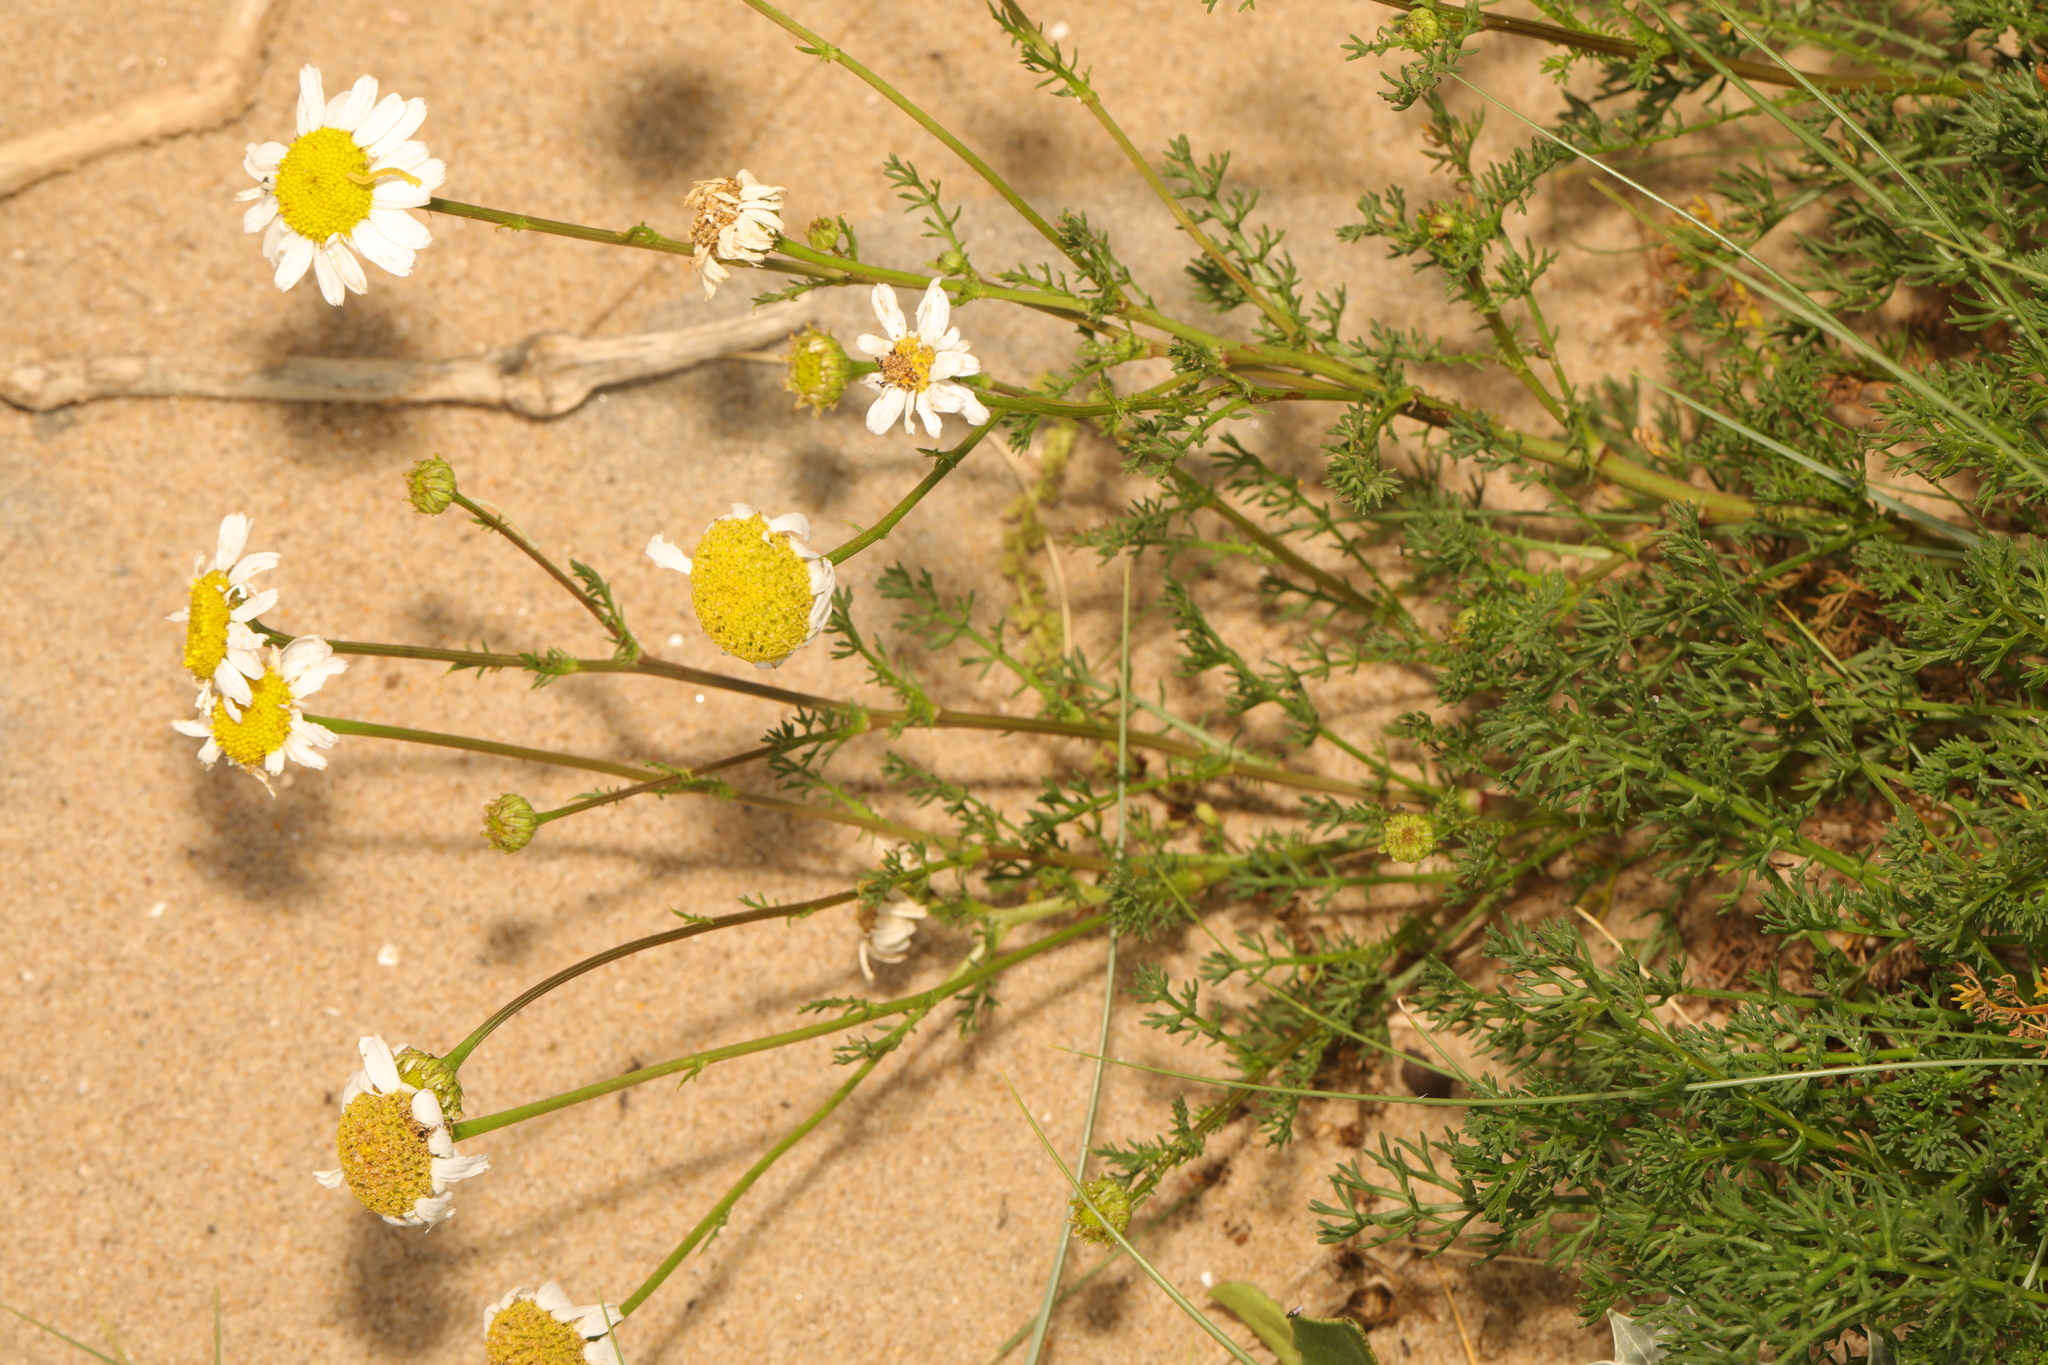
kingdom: Plantae
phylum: Tracheophyta
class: Magnoliopsida
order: Asterales
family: Asteraceae
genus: Tripleurospermum
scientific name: Tripleurospermum maritimum
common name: Sea mayweed
